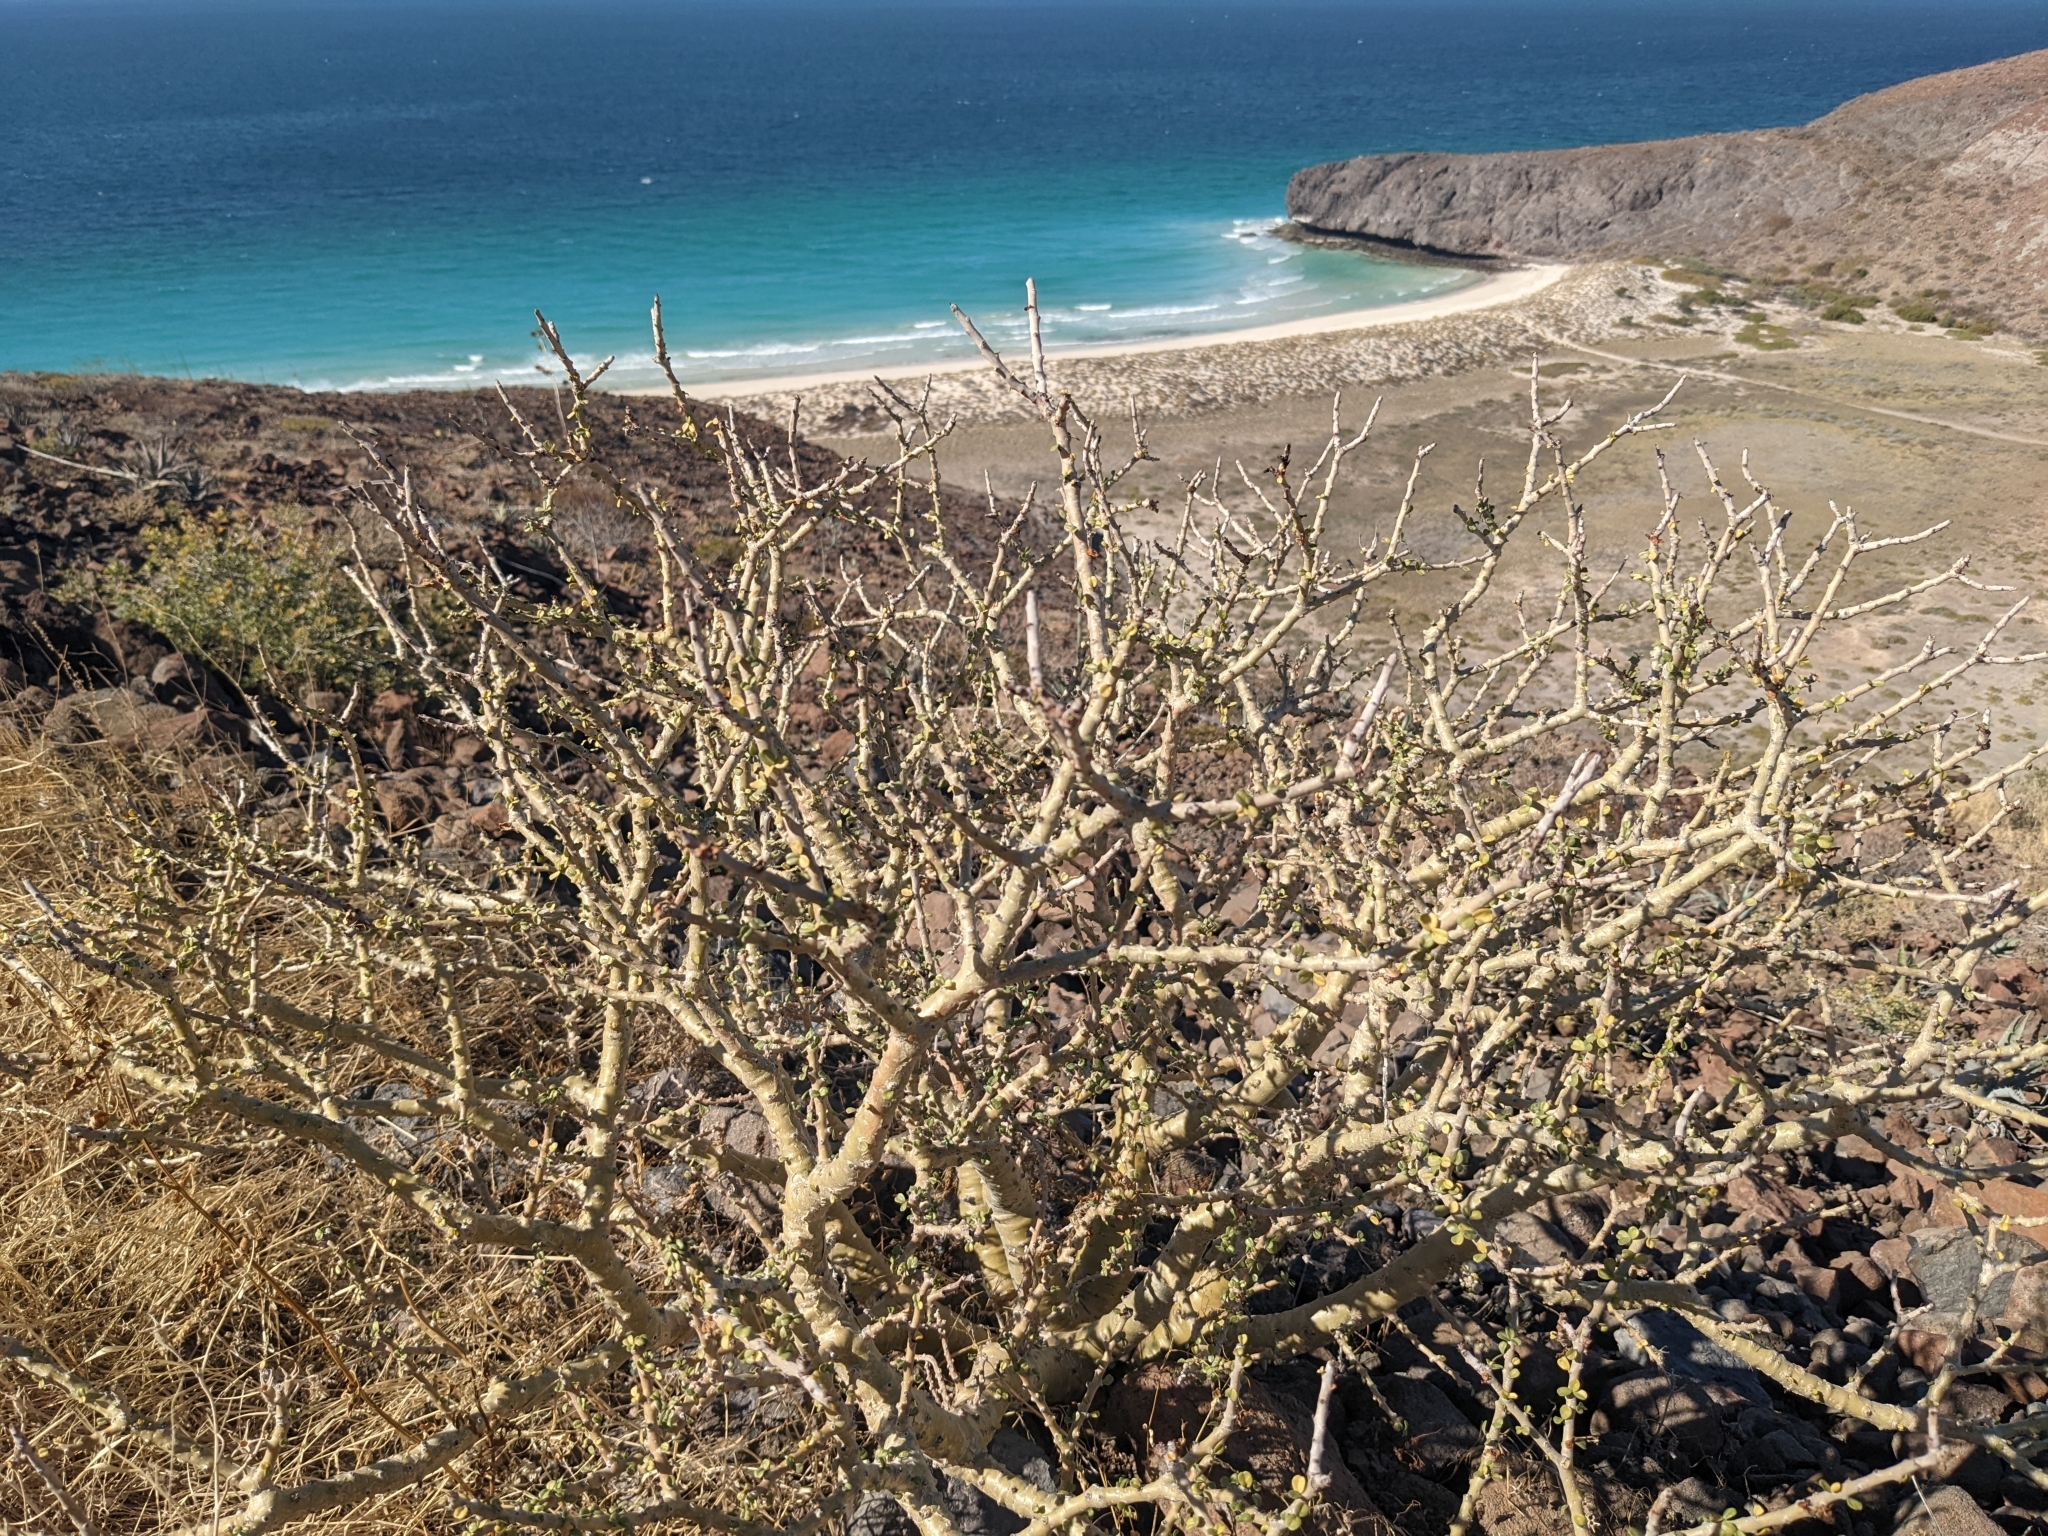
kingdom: Plantae
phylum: Tracheophyta
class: Magnoliopsida
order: Malpighiales
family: Euphorbiaceae
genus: Jatropha
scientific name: Jatropha cuneata
